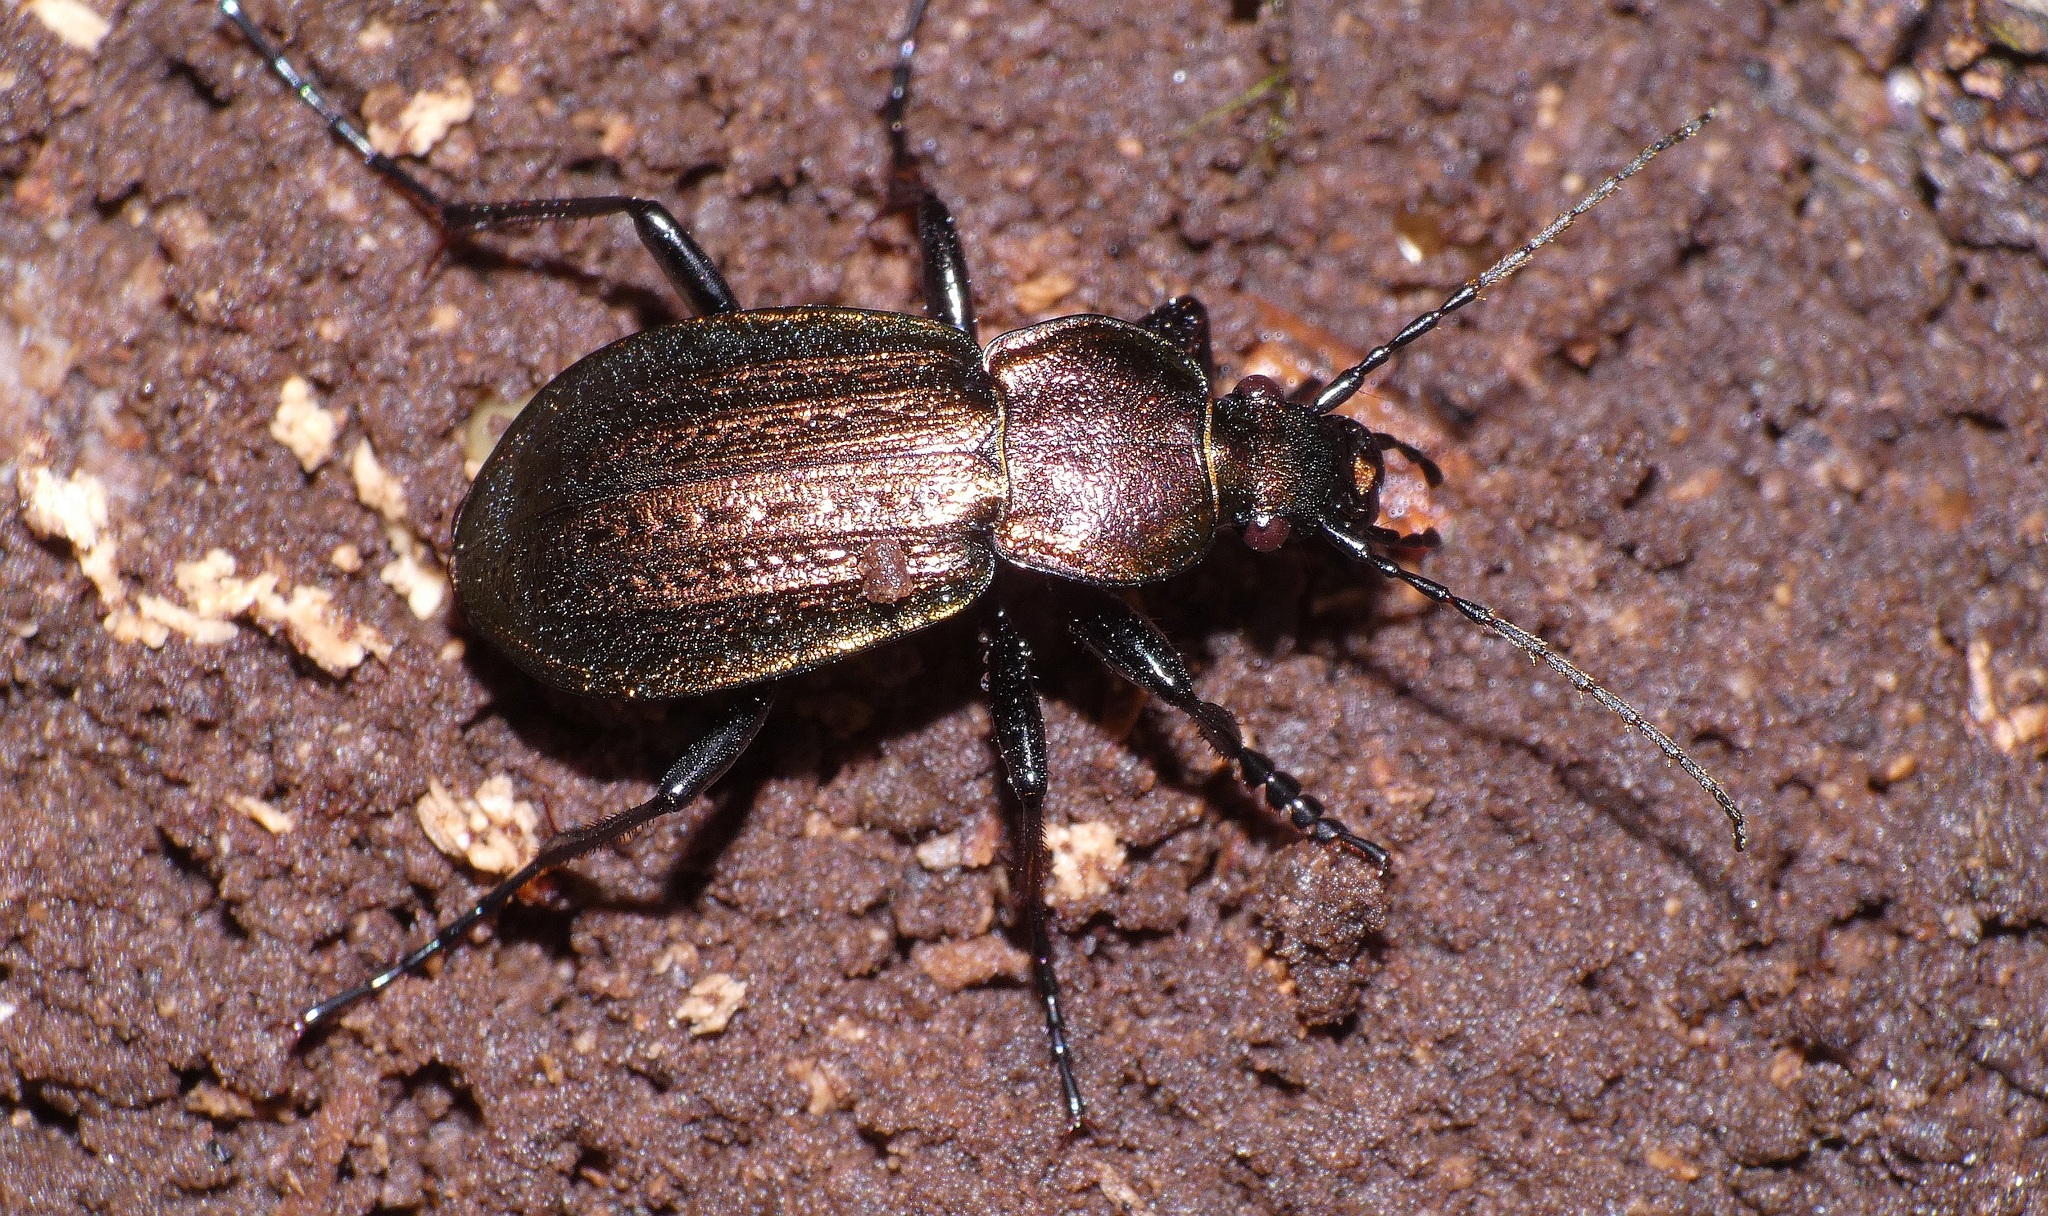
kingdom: Animalia
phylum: Arthropoda
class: Insecta
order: Coleoptera
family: Carabidae
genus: Carabus
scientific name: Carabus arvensis
